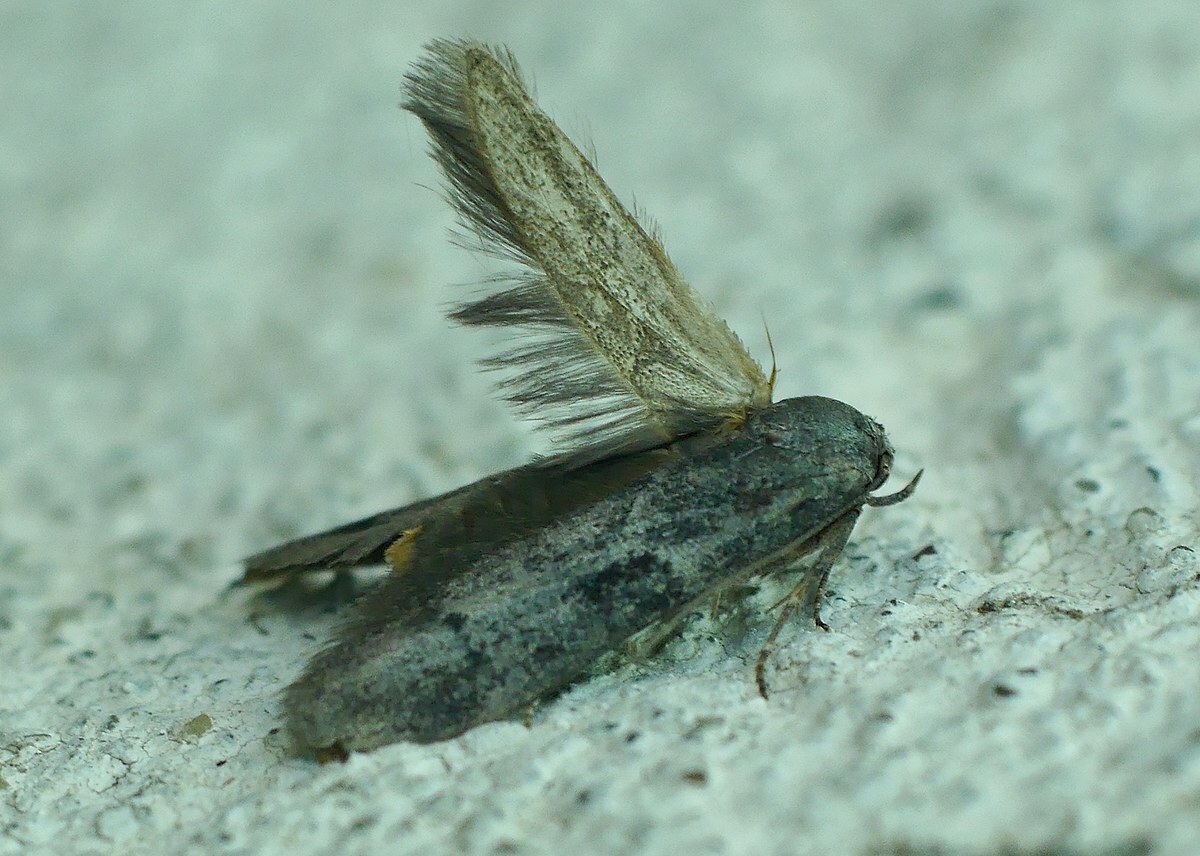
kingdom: Animalia
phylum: Arthropoda
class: Insecta
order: Lepidoptera
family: Blastobasidae
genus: Blastobasis
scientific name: Blastobasis glandulella
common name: Acorn moth
